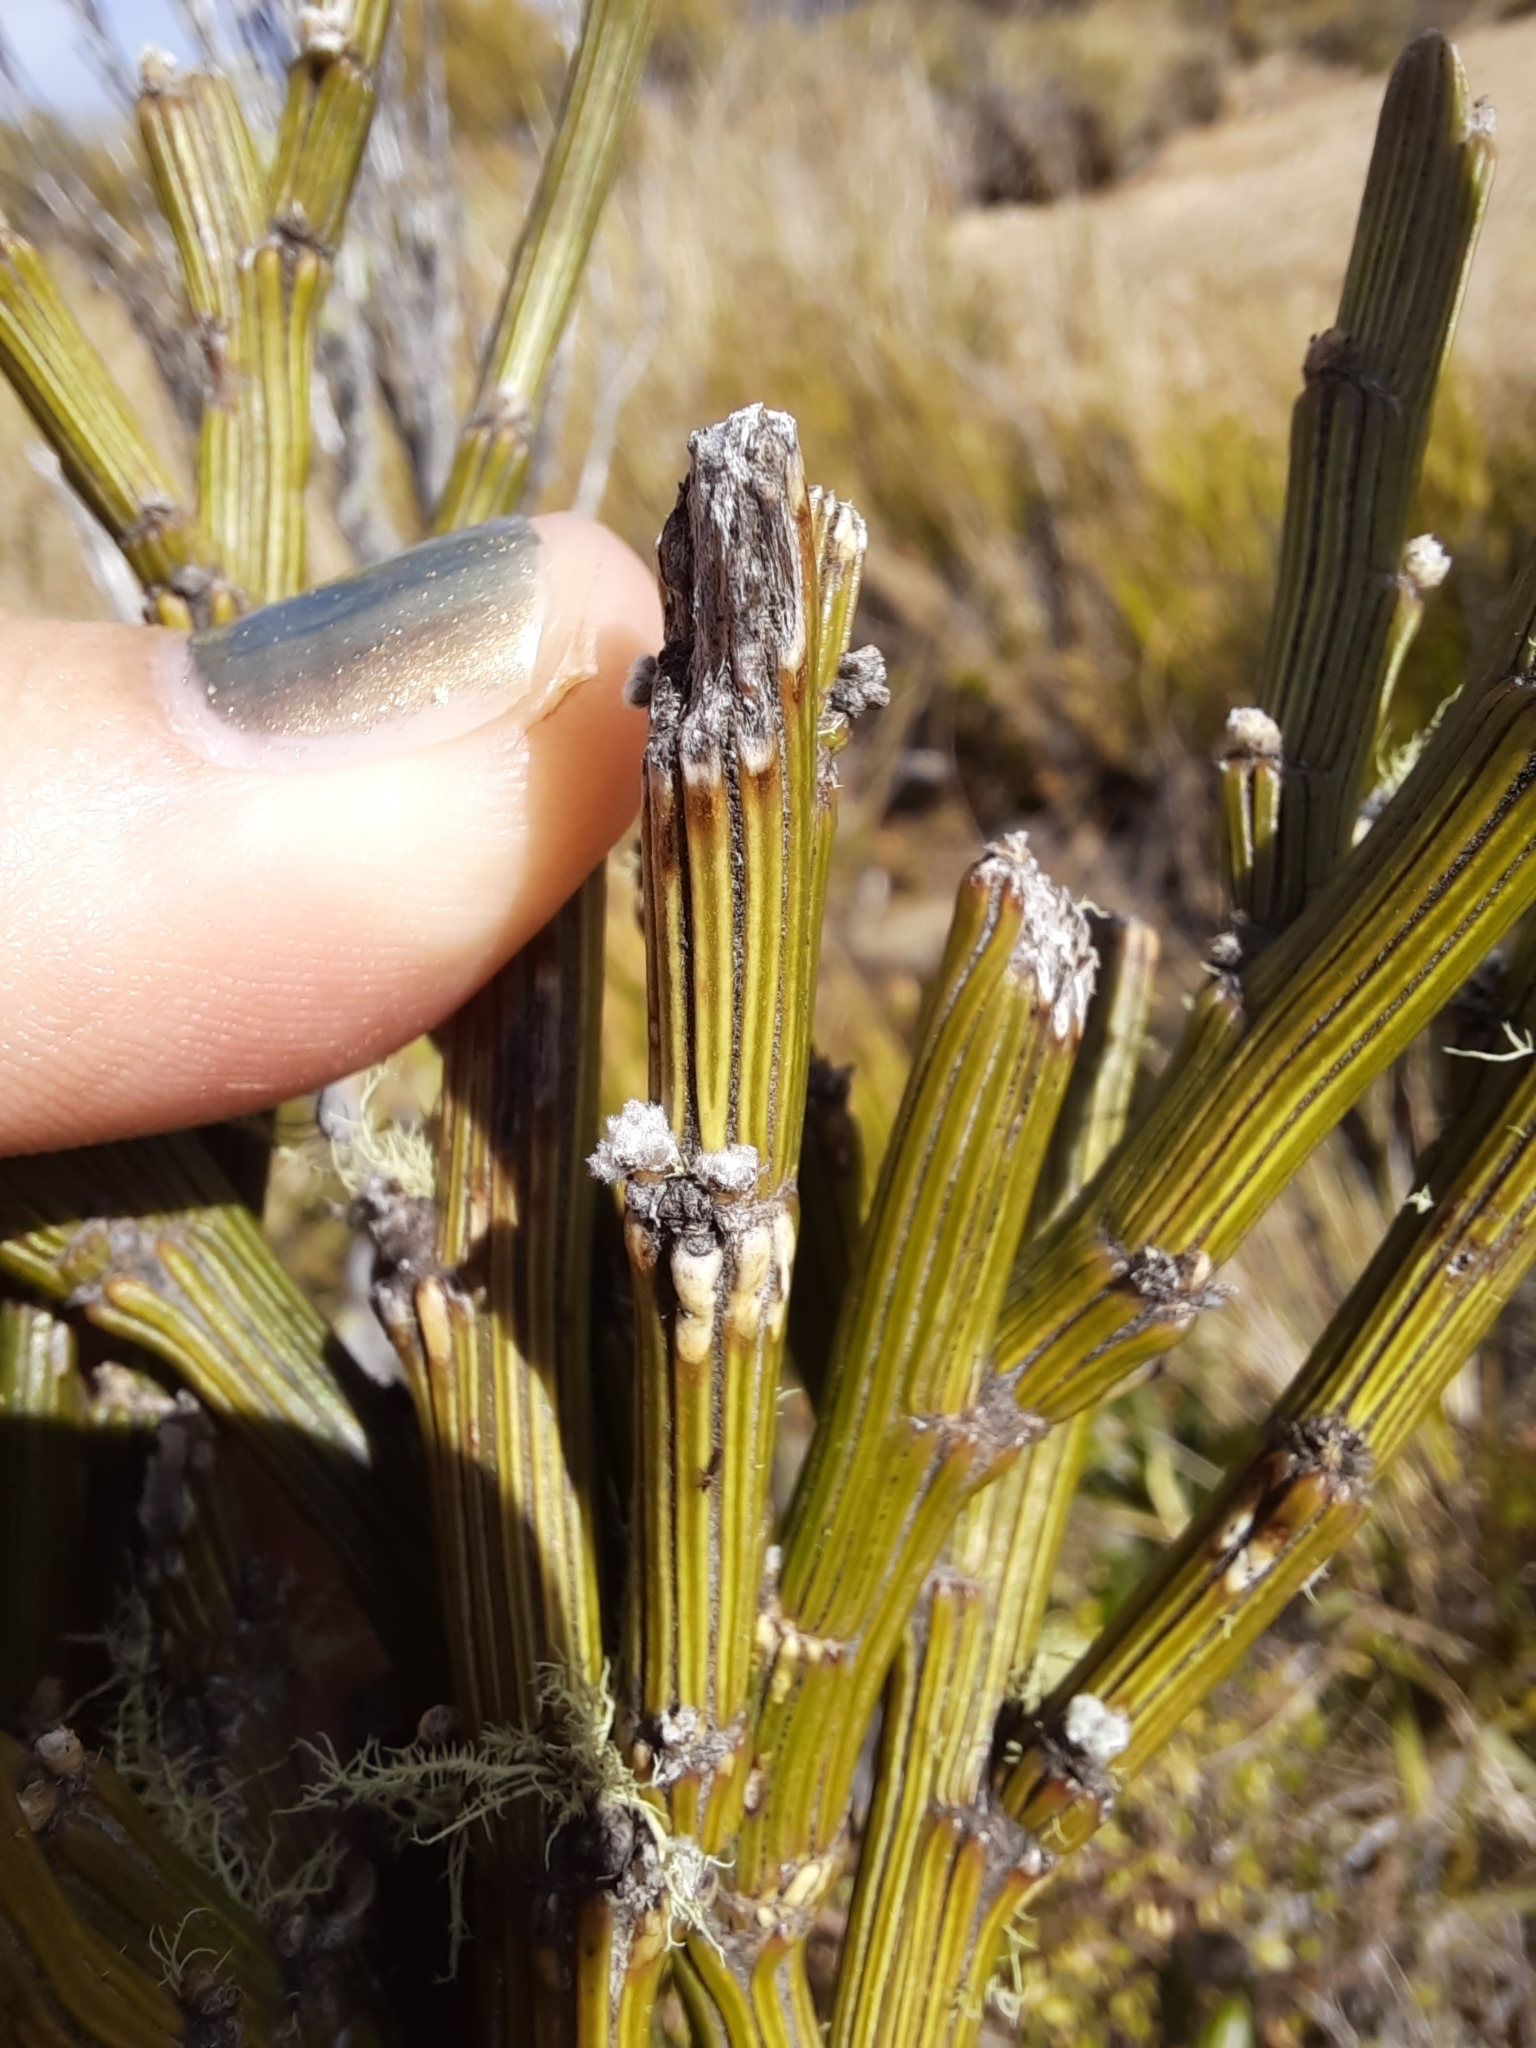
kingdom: Plantae
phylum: Tracheophyta
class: Magnoliopsida
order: Fabales
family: Fabaceae
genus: Carmichaelia
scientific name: Carmichaelia crassicaulis
